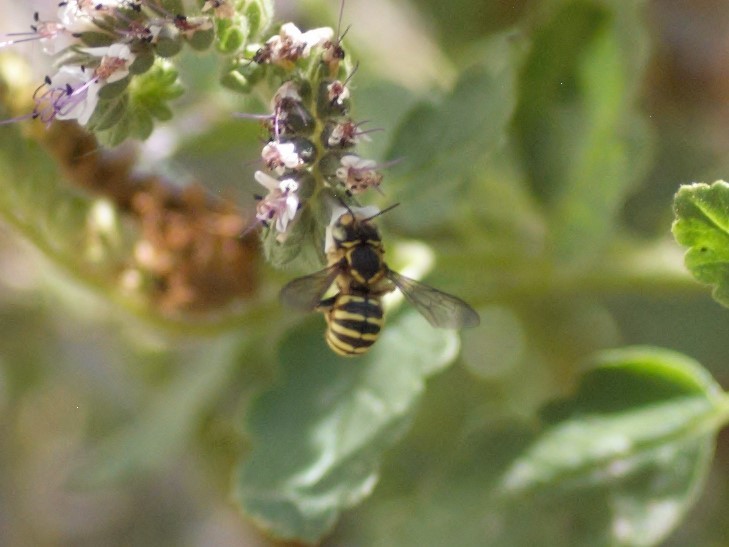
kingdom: Animalia
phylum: Arthropoda
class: Insecta
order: Hymenoptera
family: Megachilidae
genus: Anthidium
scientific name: Anthidium
